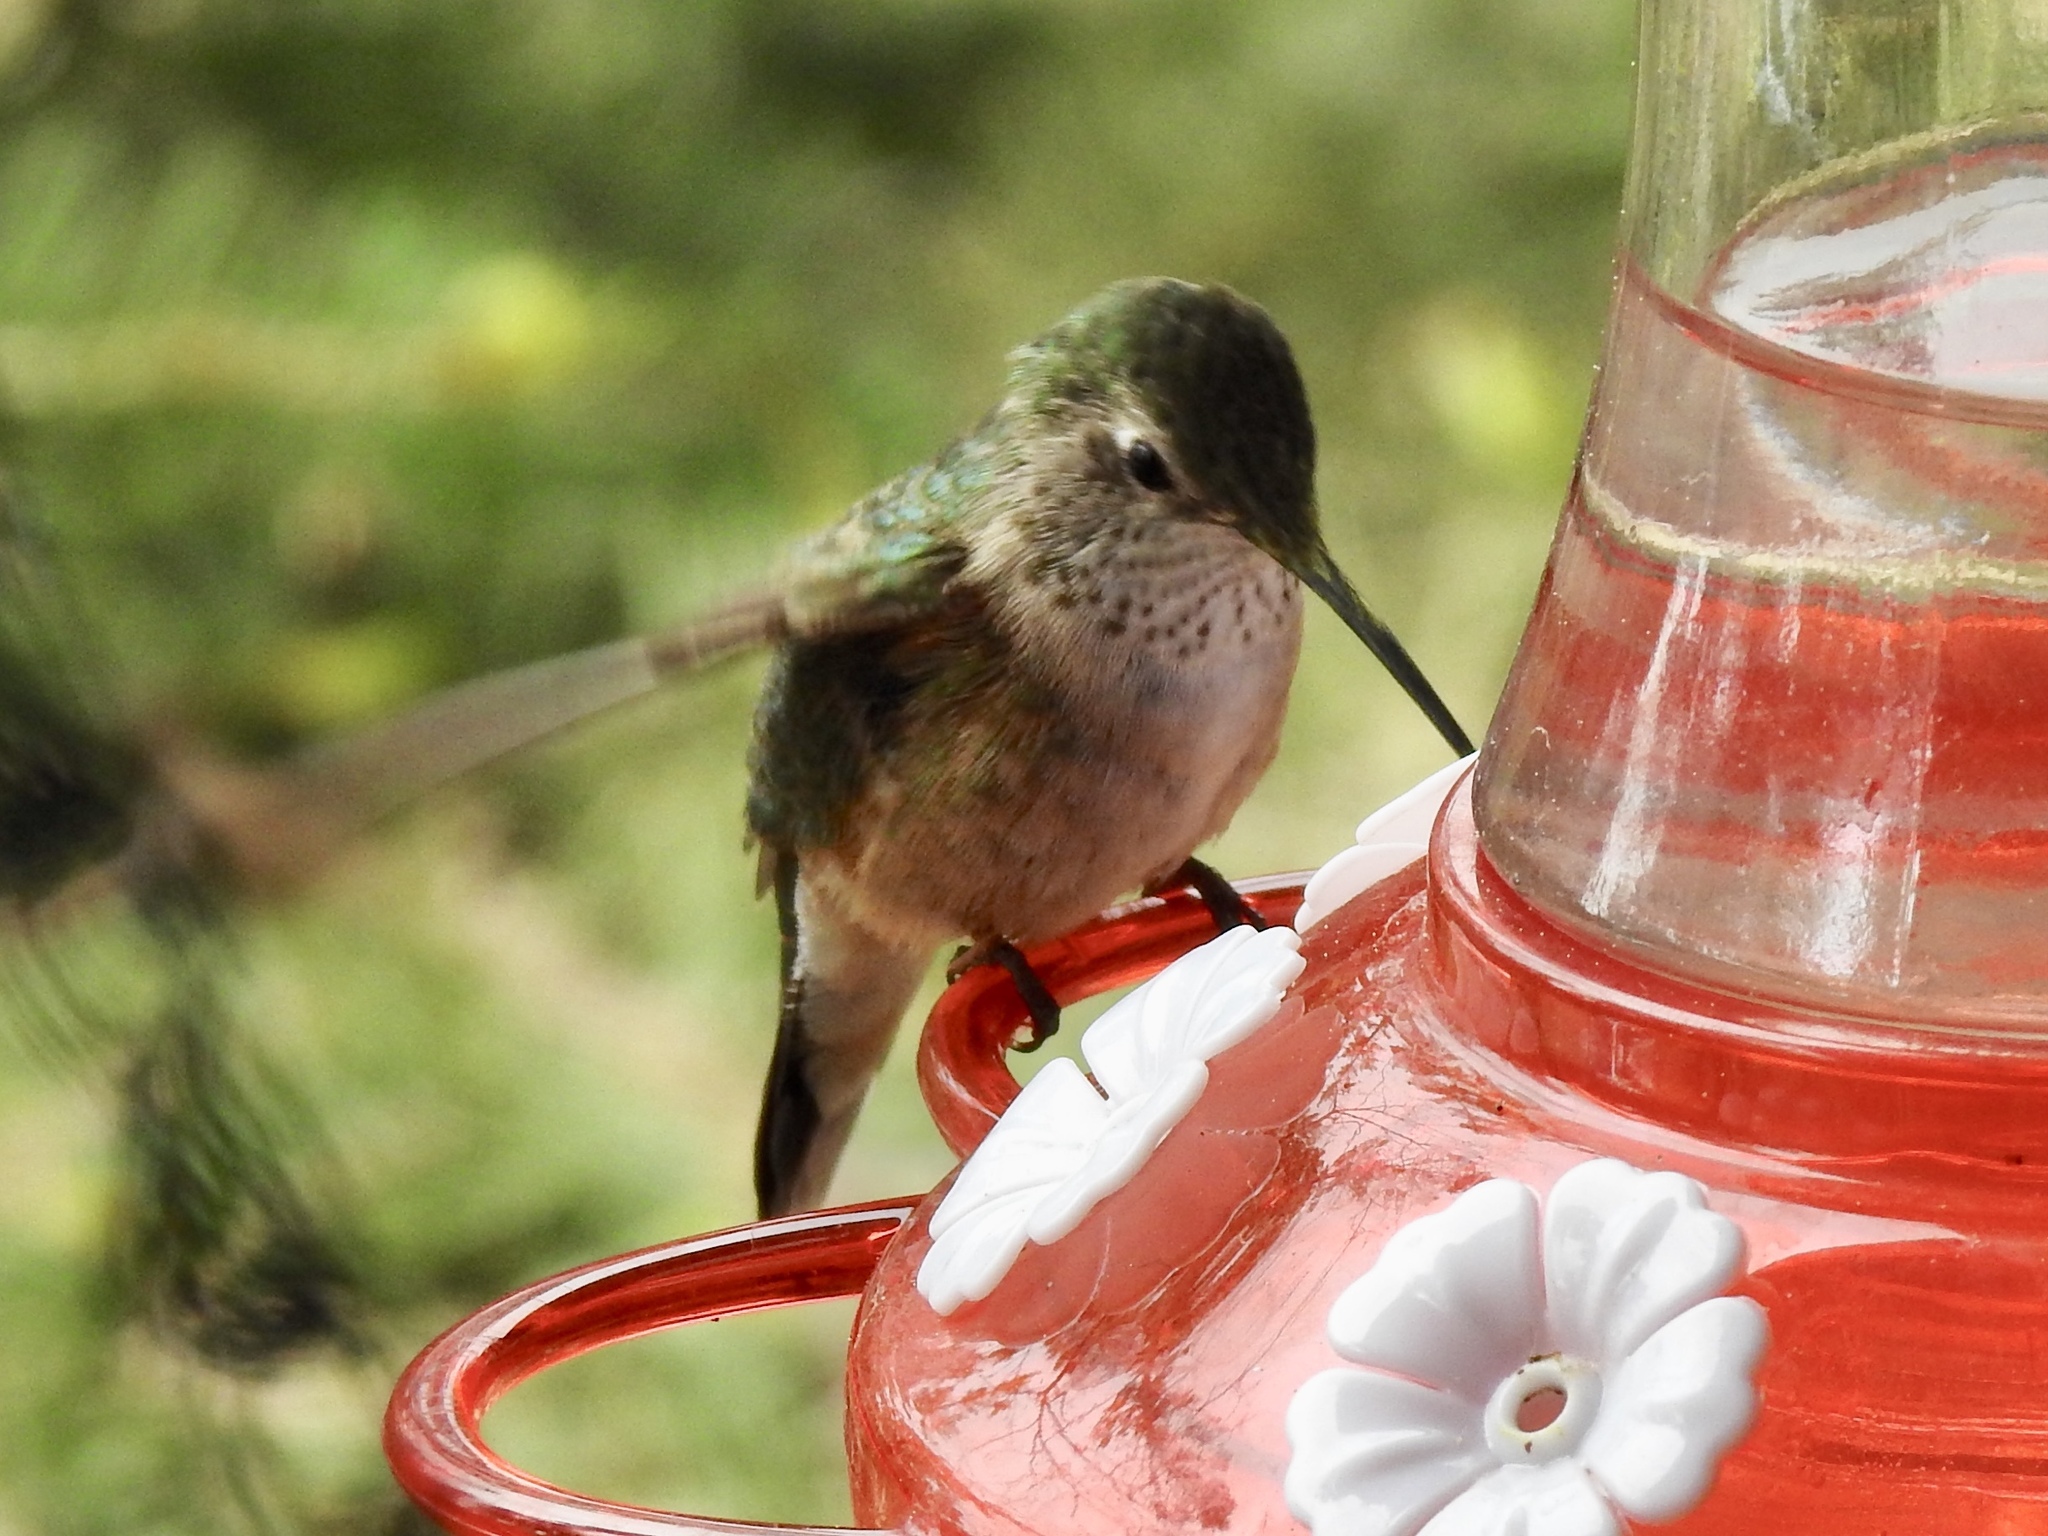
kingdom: Animalia
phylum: Chordata
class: Aves
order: Apodiformes
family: Trochilidae
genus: Selasphorus
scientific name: Selasphorus platycercus
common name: Broad-tailed hummingbird
